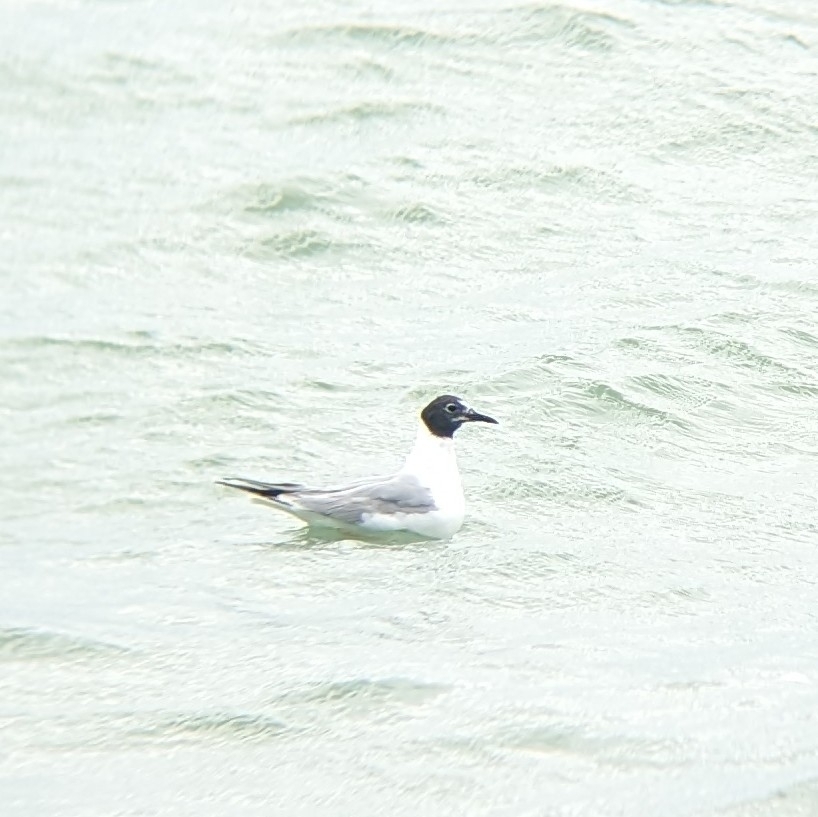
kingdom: Animalia
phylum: Chordata
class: Aves
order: Charadriiformes
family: Laridae
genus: Chroicocephalus
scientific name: Chroicocephalus philadelphia
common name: Bonaparte's gull
